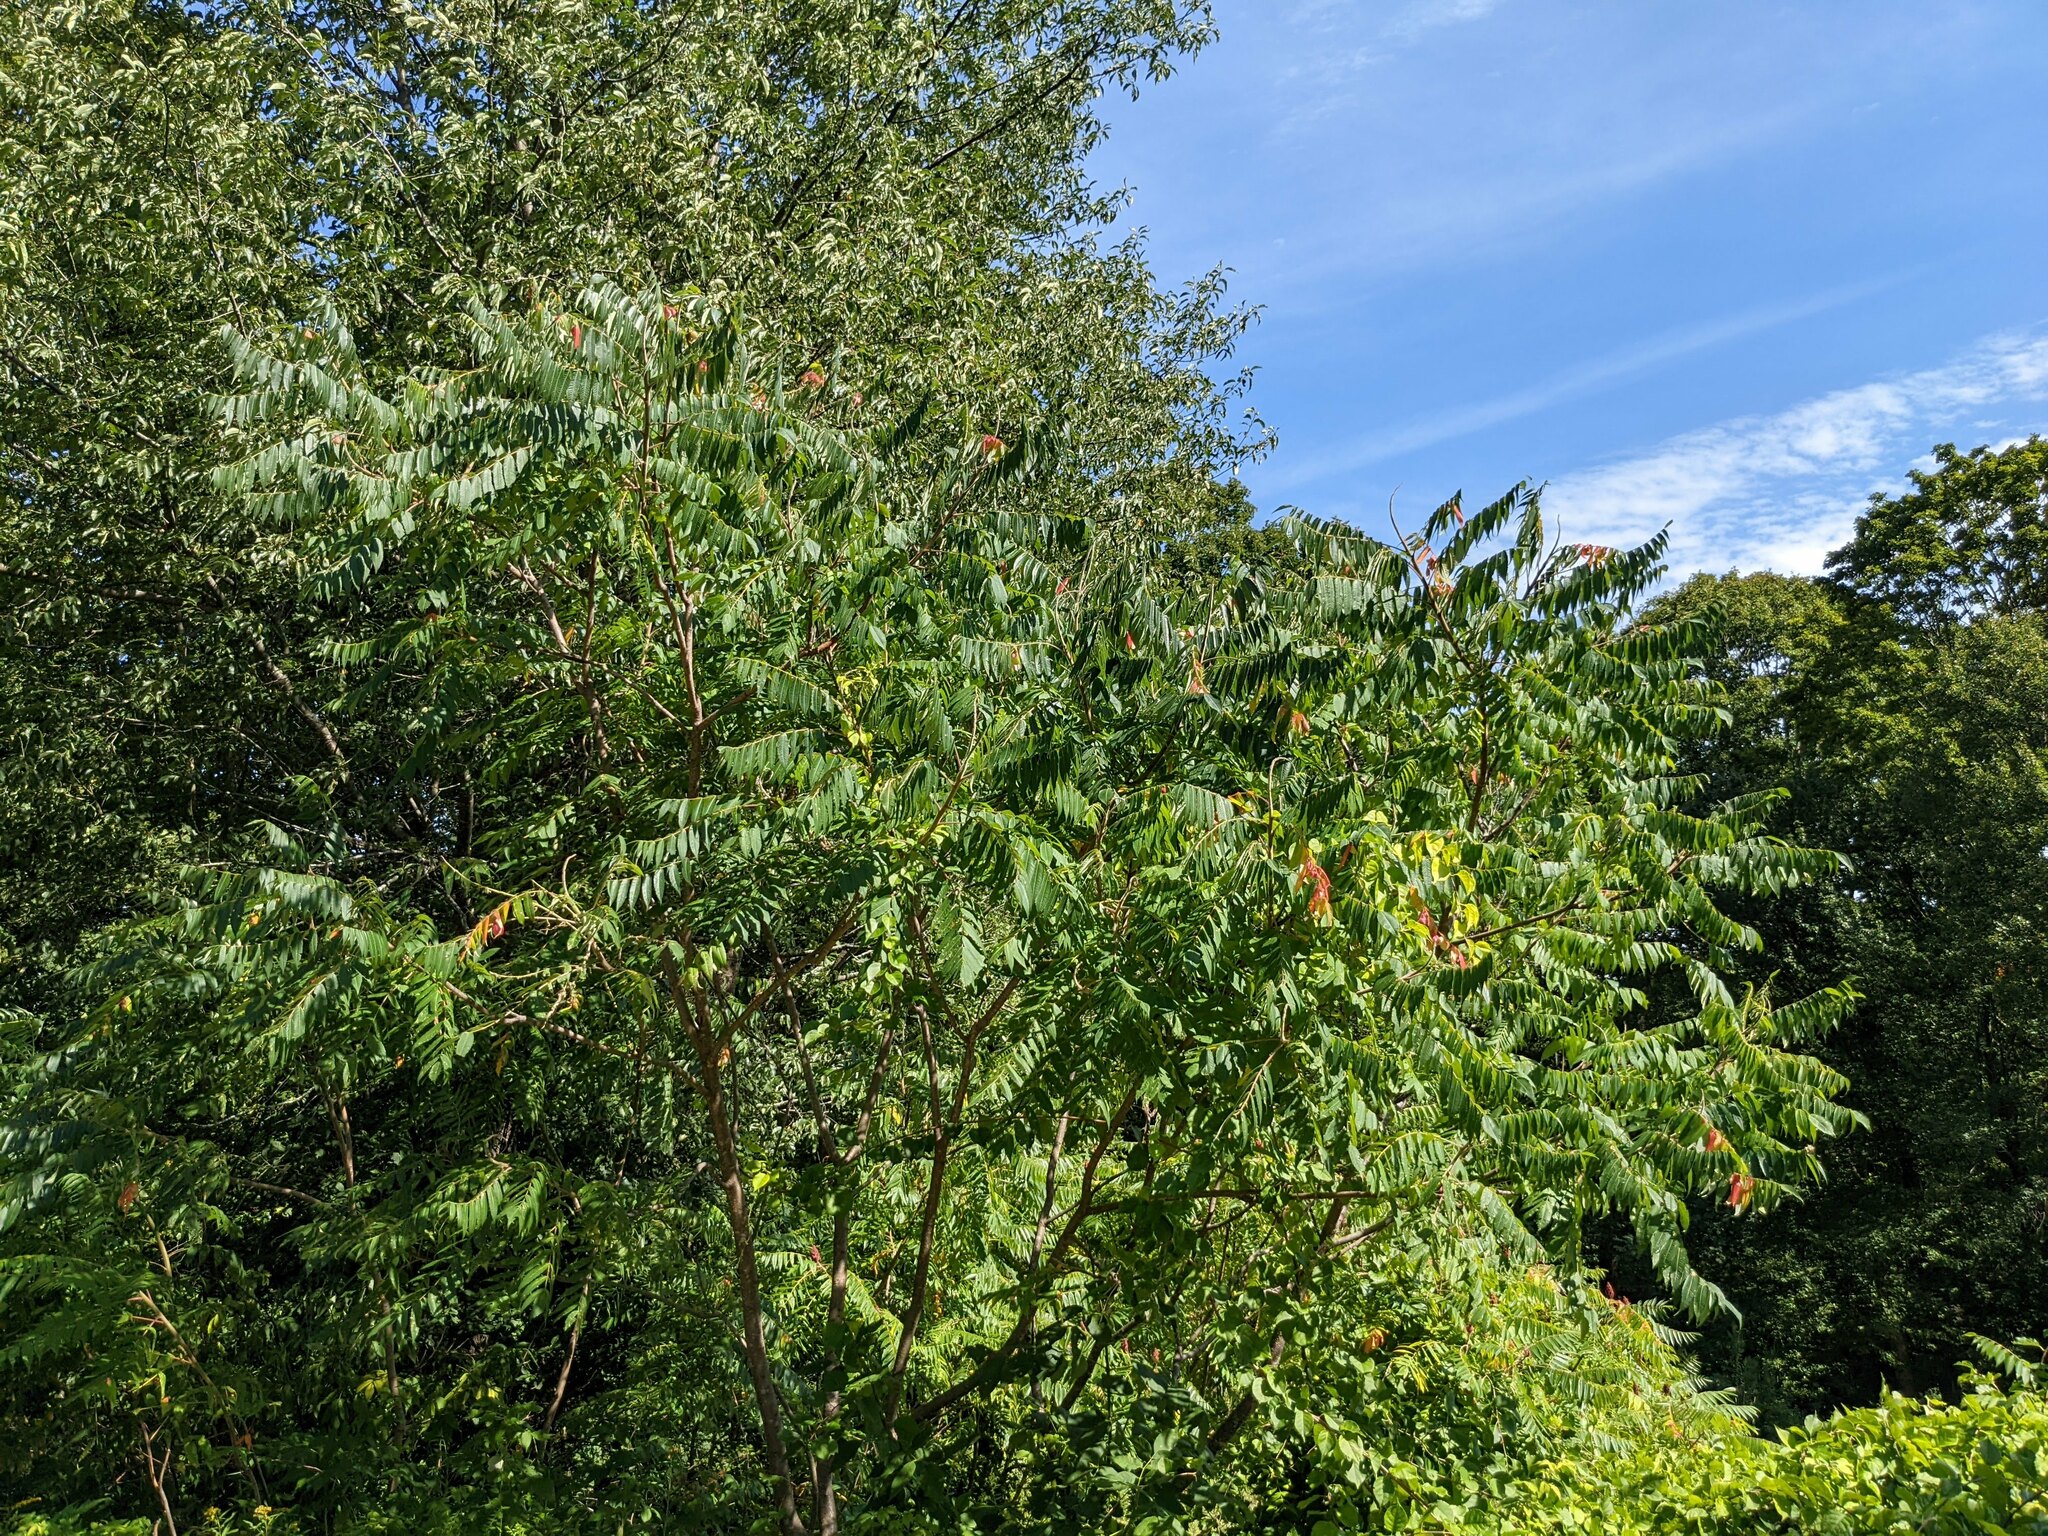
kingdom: Plantae
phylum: Tracheophyta
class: Magnoliopsida
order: Sapindales
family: Anacardiaceae
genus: Rhus
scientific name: Rhus typhina
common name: Staghorn sumac
